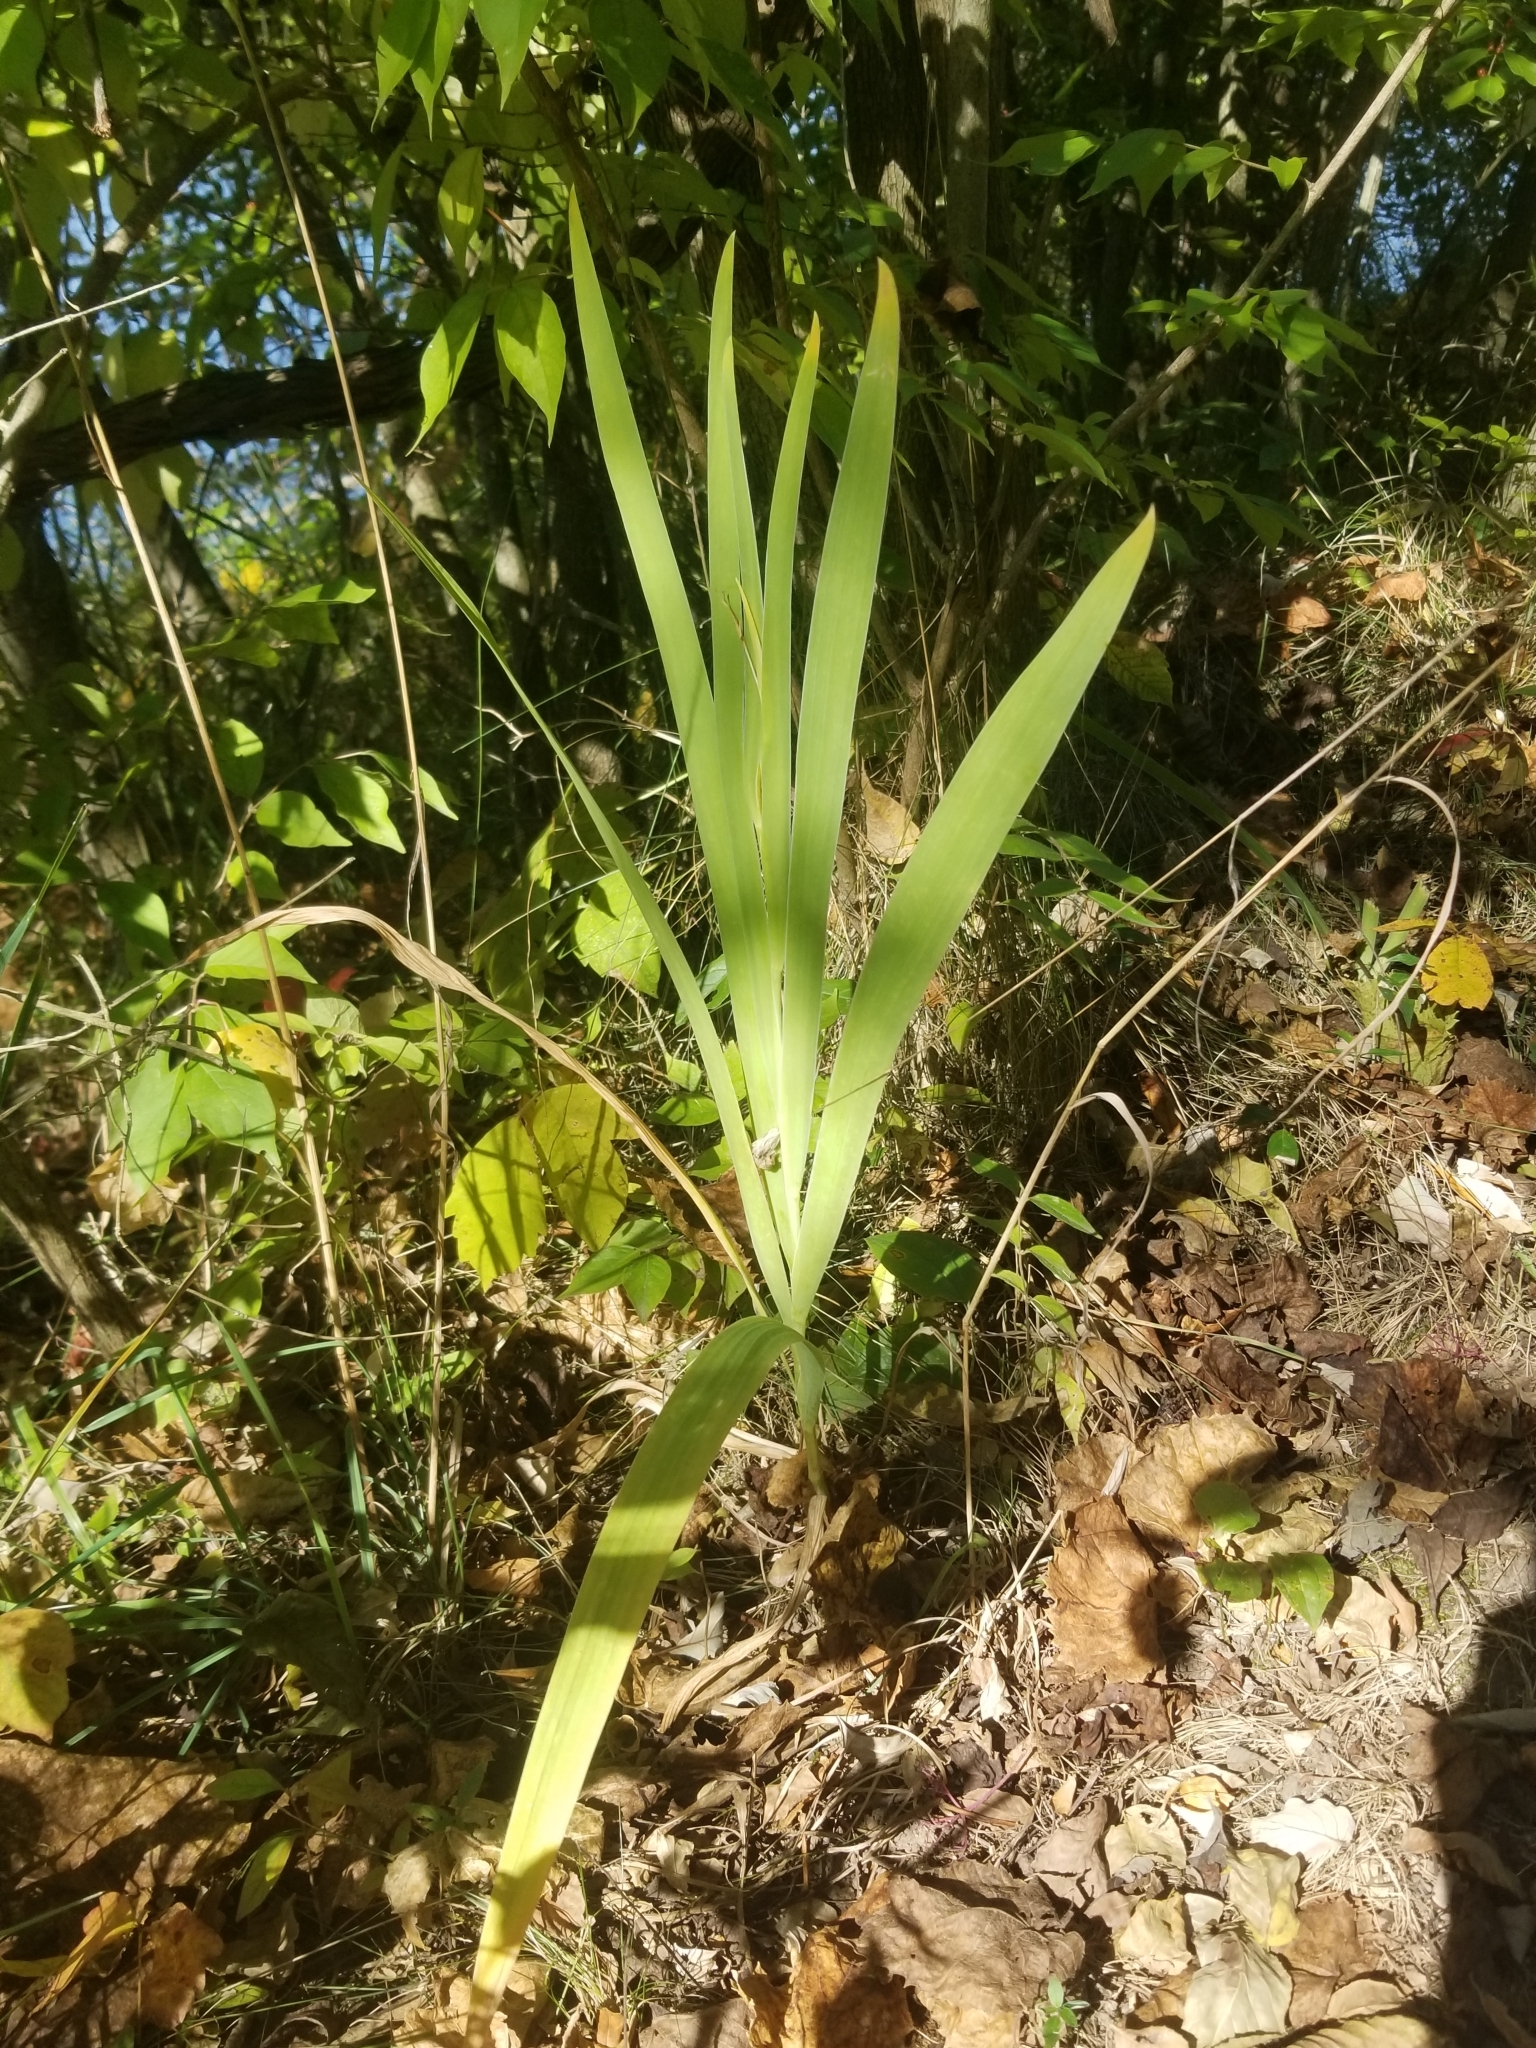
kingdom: Plantae
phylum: Tracheophyta
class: Liliopsida
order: Asparagales
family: Iridaceae
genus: Iris
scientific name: Iris domestica
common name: Belamcanda
